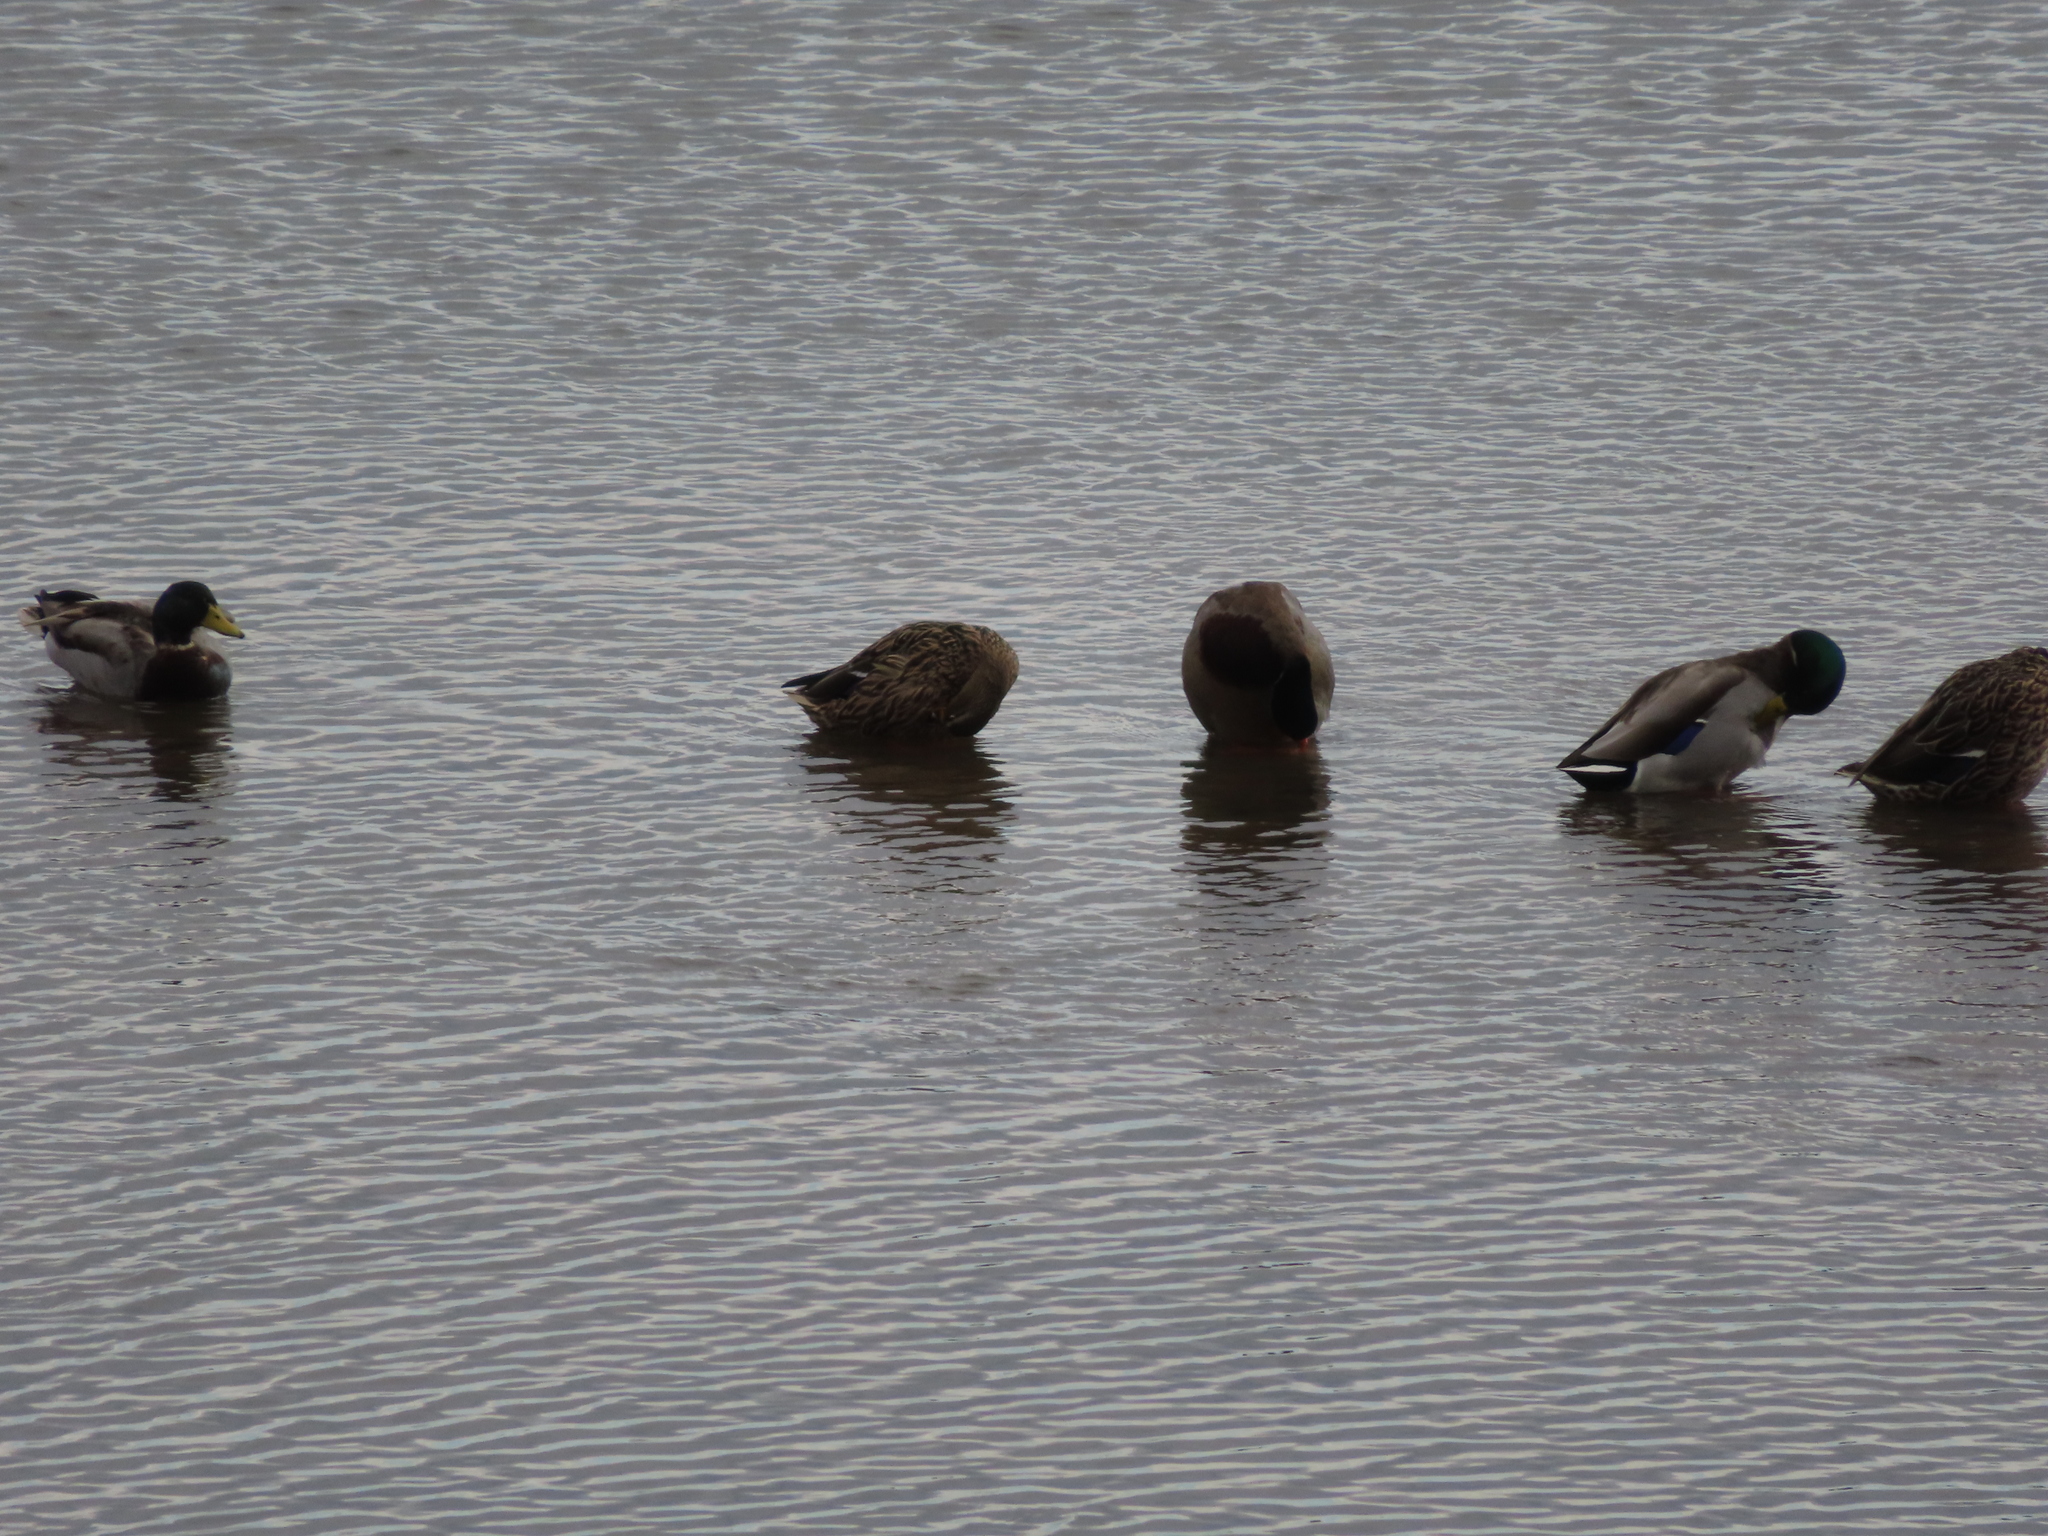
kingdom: Animalia
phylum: Chordata
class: Aves
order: Anseriformes
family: Anatidae
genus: Anas
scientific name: Anas platyrhynchos
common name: Mallard
